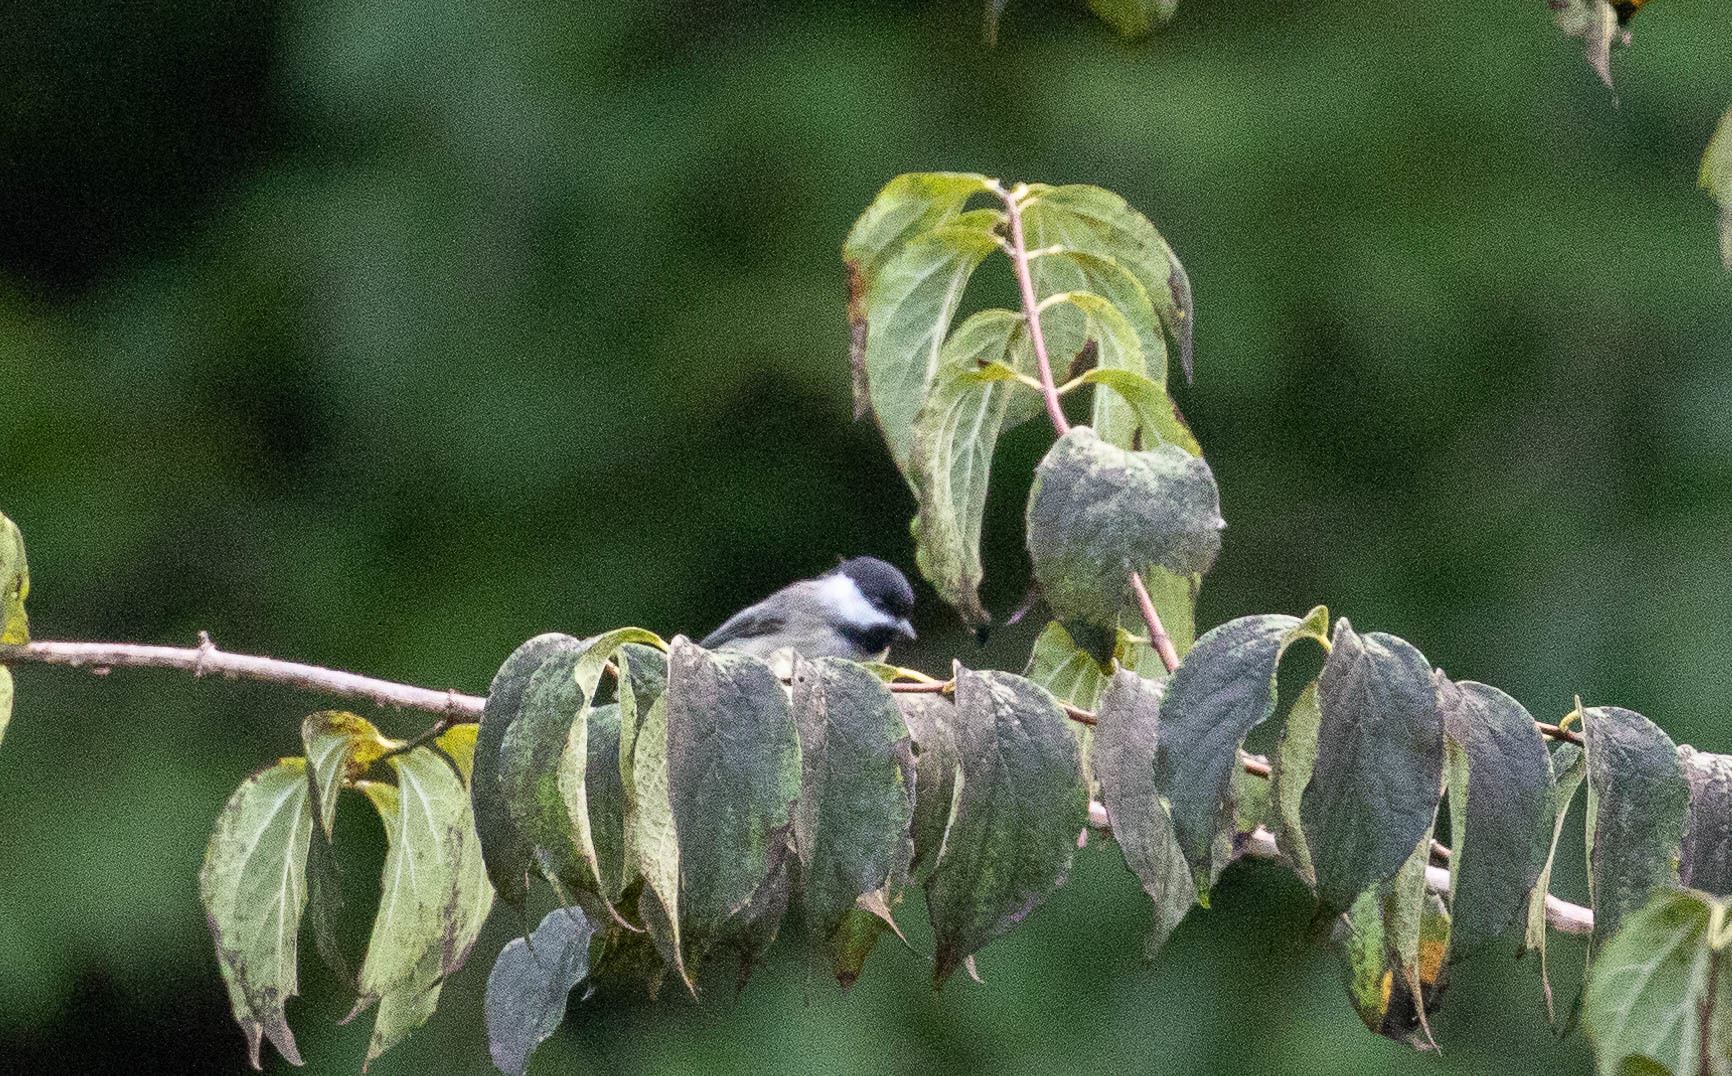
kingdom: Animalia
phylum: Chordata
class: Aves
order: Passeriformes
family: Paridae
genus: Poecile
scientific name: Poecile carolinensis
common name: Carolina chickadee
